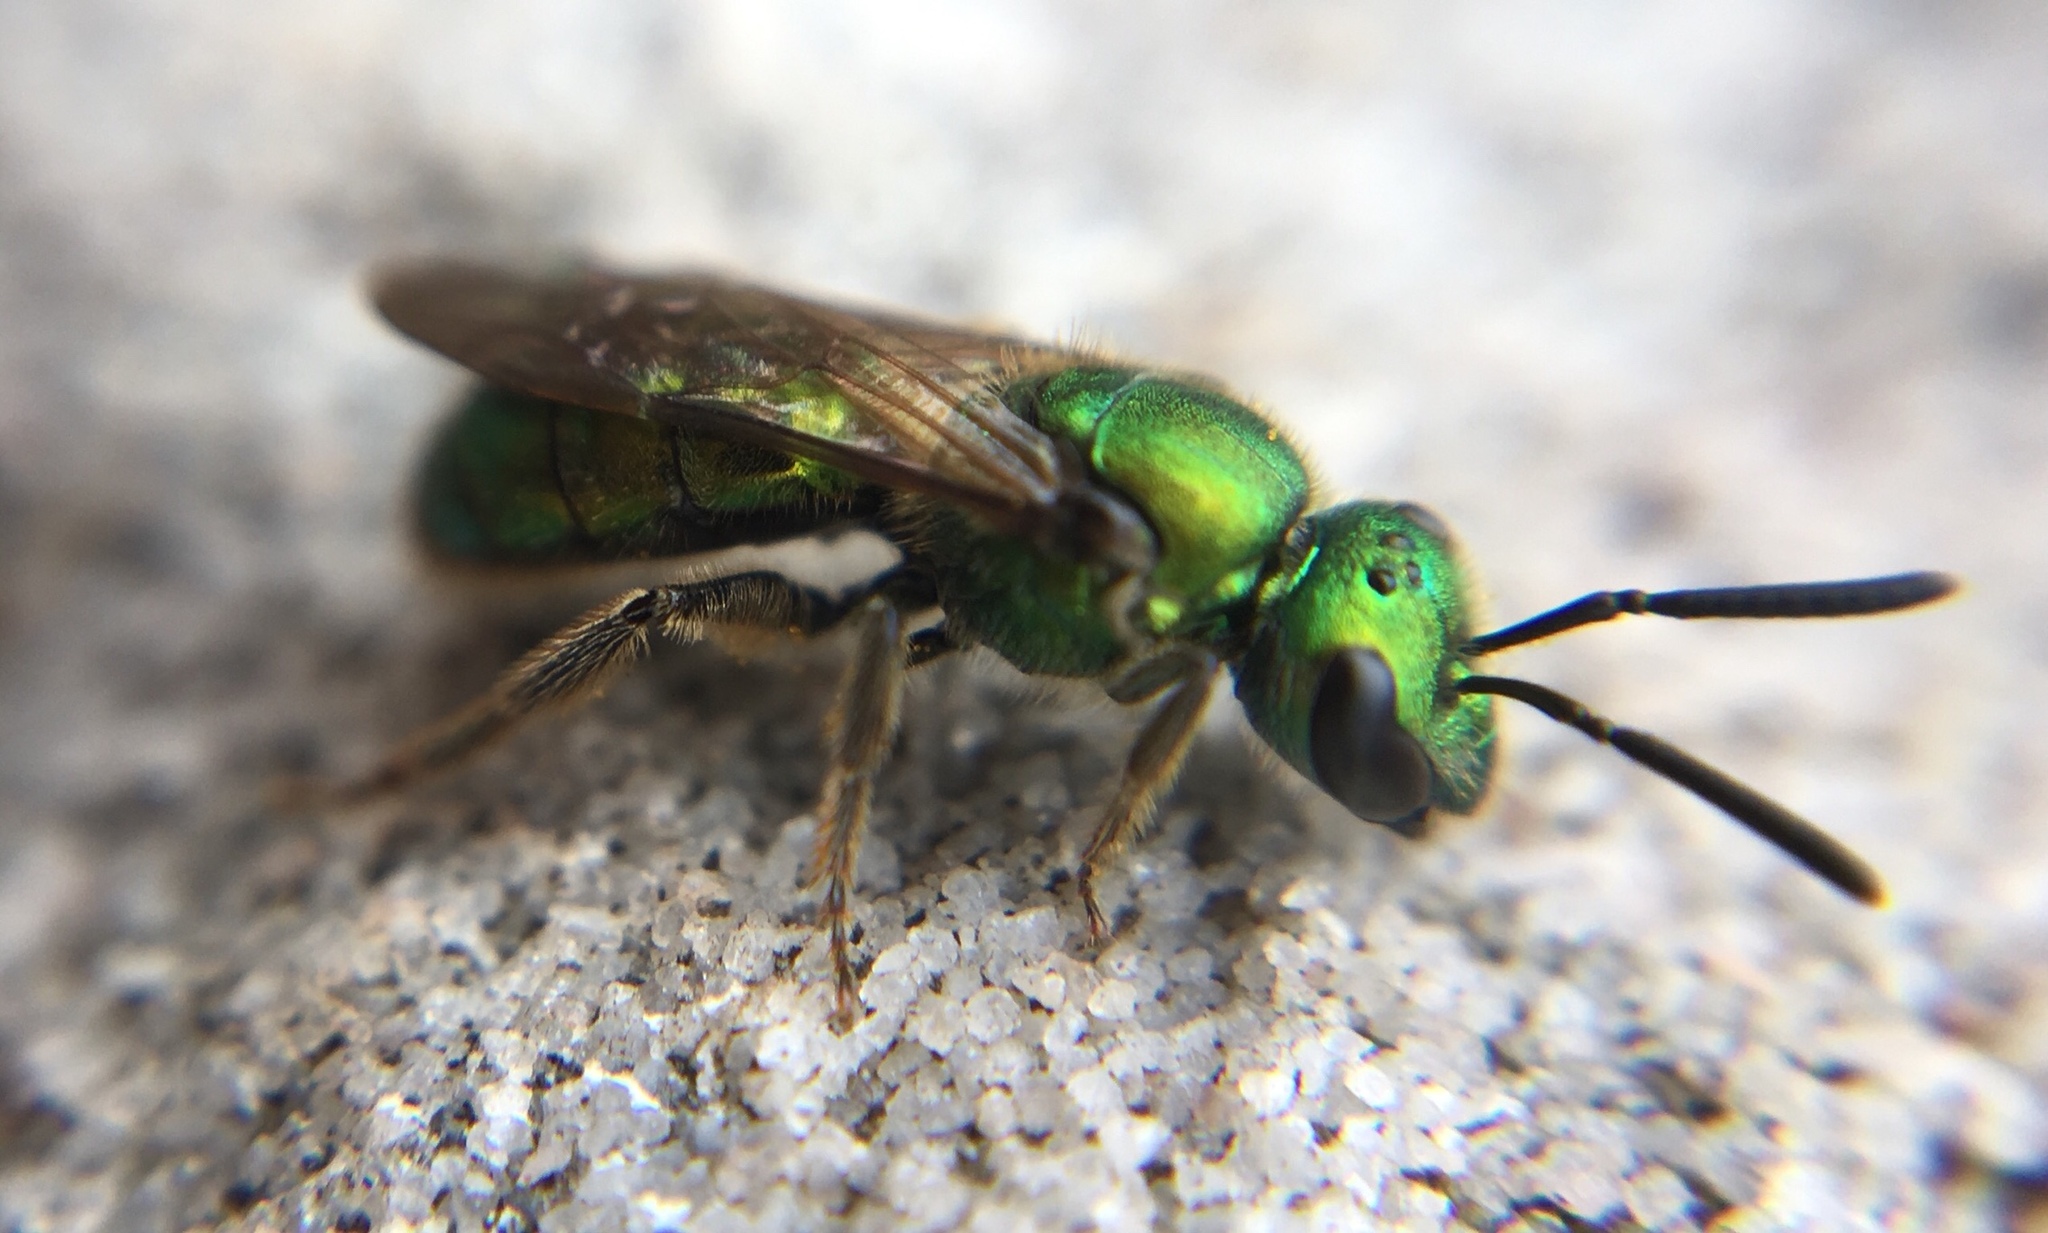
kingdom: Animalia
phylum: Arthropoda
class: Insecta
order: Hymenoptera
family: Halictidae
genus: Augochlora
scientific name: Augochlora pura
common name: Pure green sweat bee
